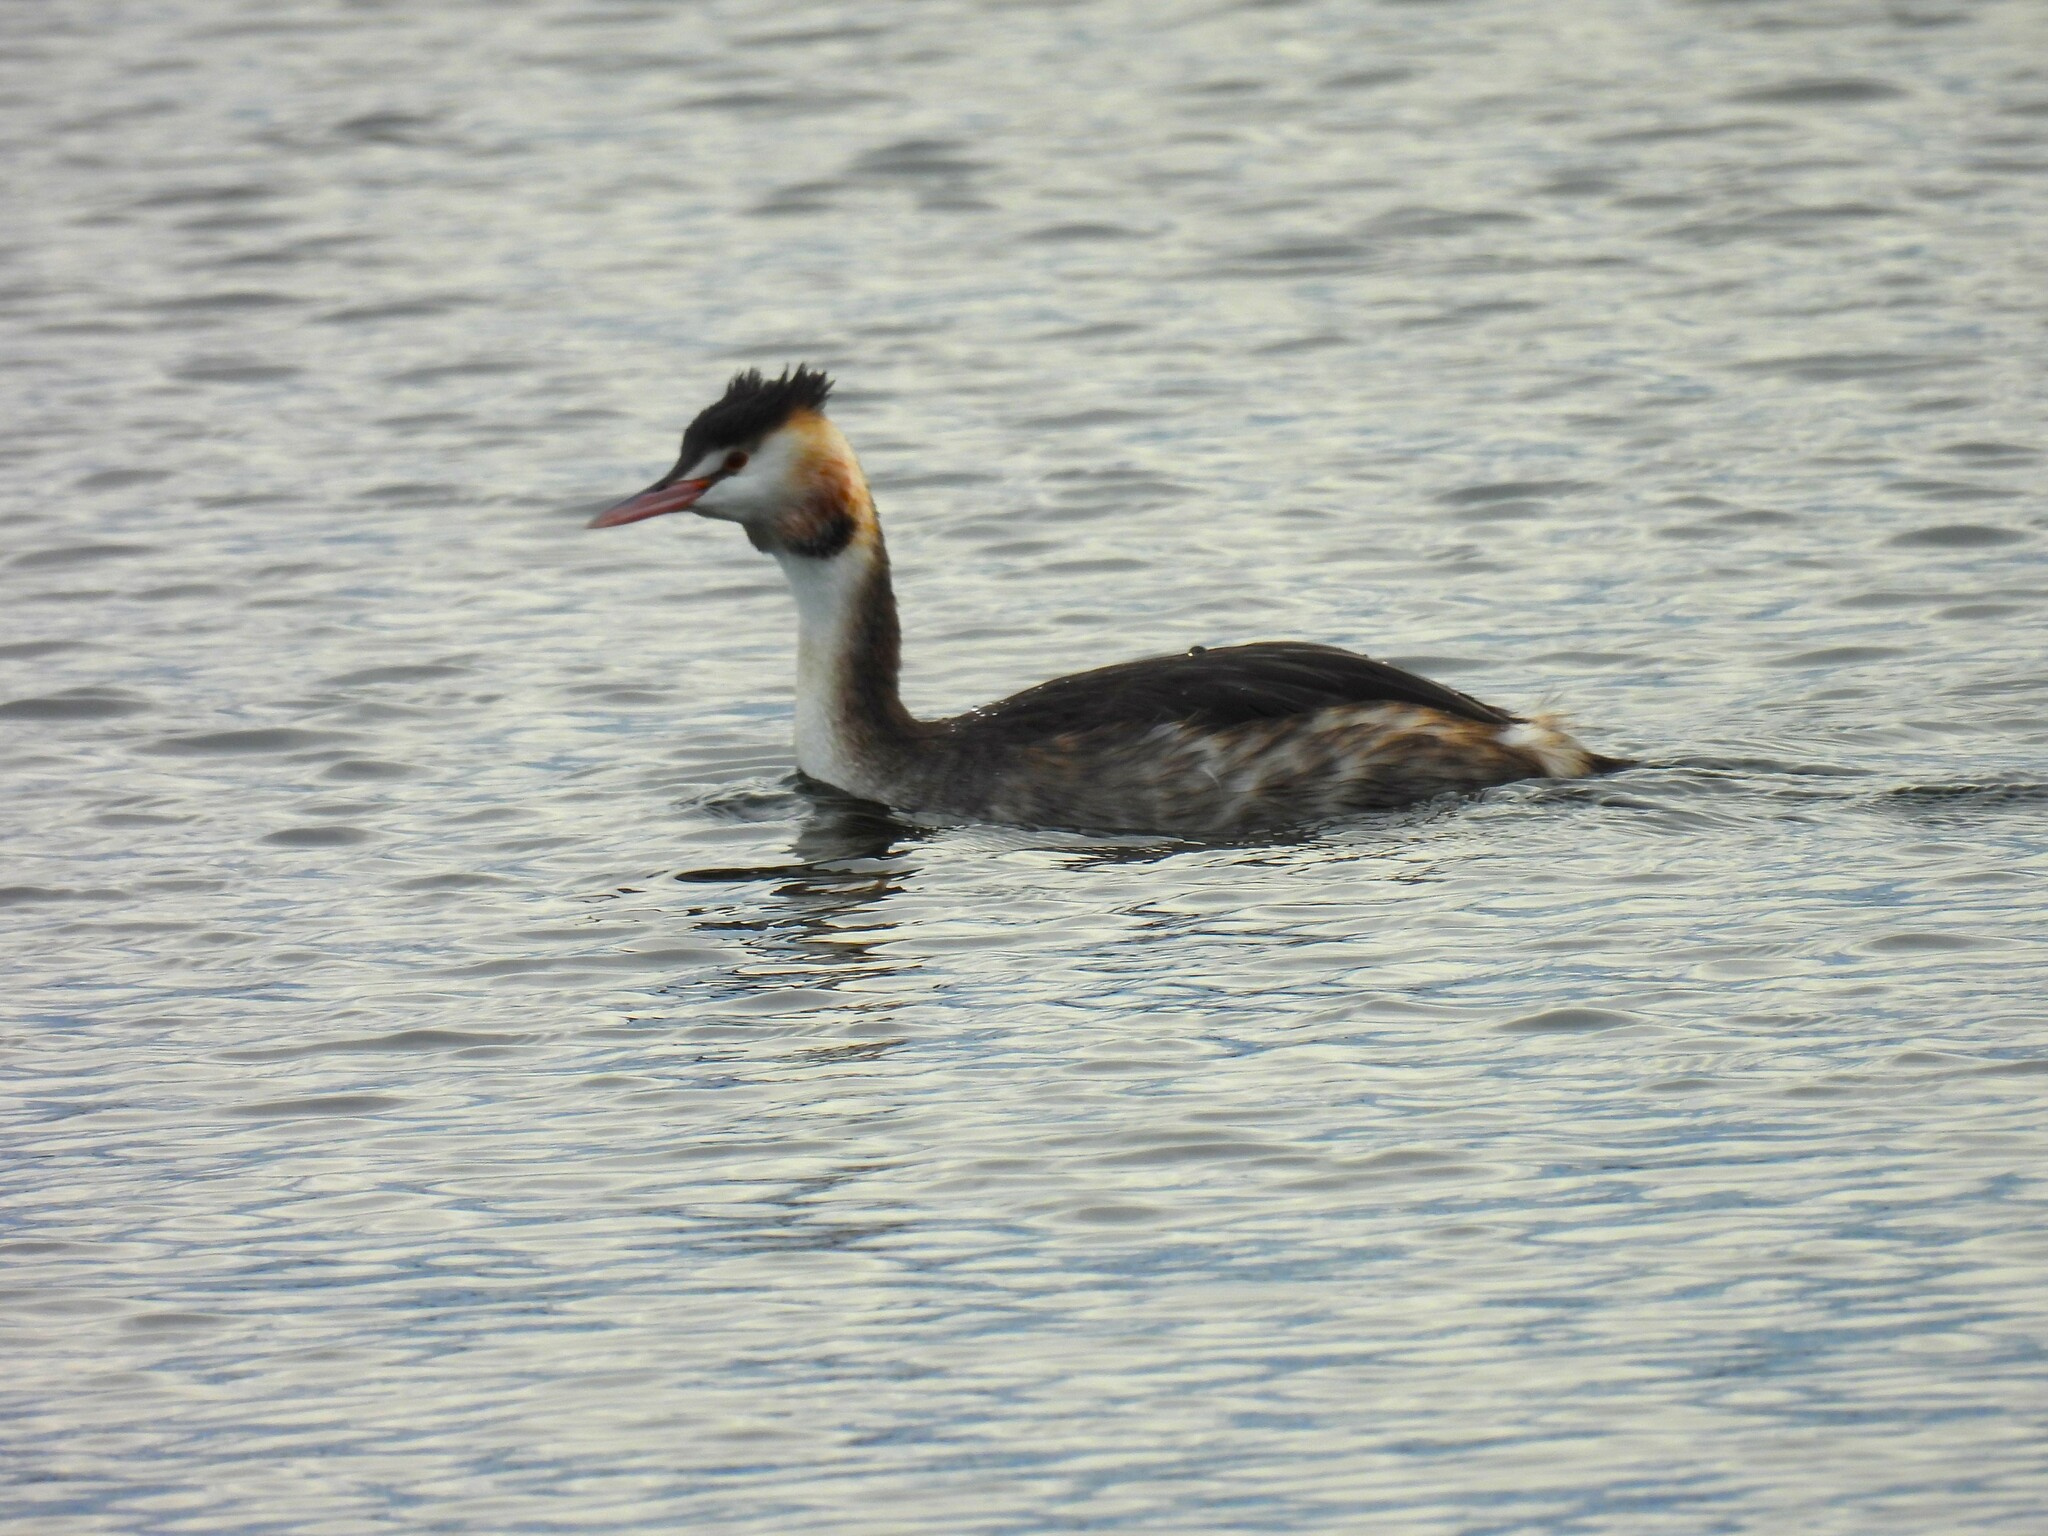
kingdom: Animalia
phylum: Chordata
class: Aves
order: Podicipediformes
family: Podicipedidae
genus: Podiceps
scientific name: Podiceps cristatus
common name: Great crested grebe
